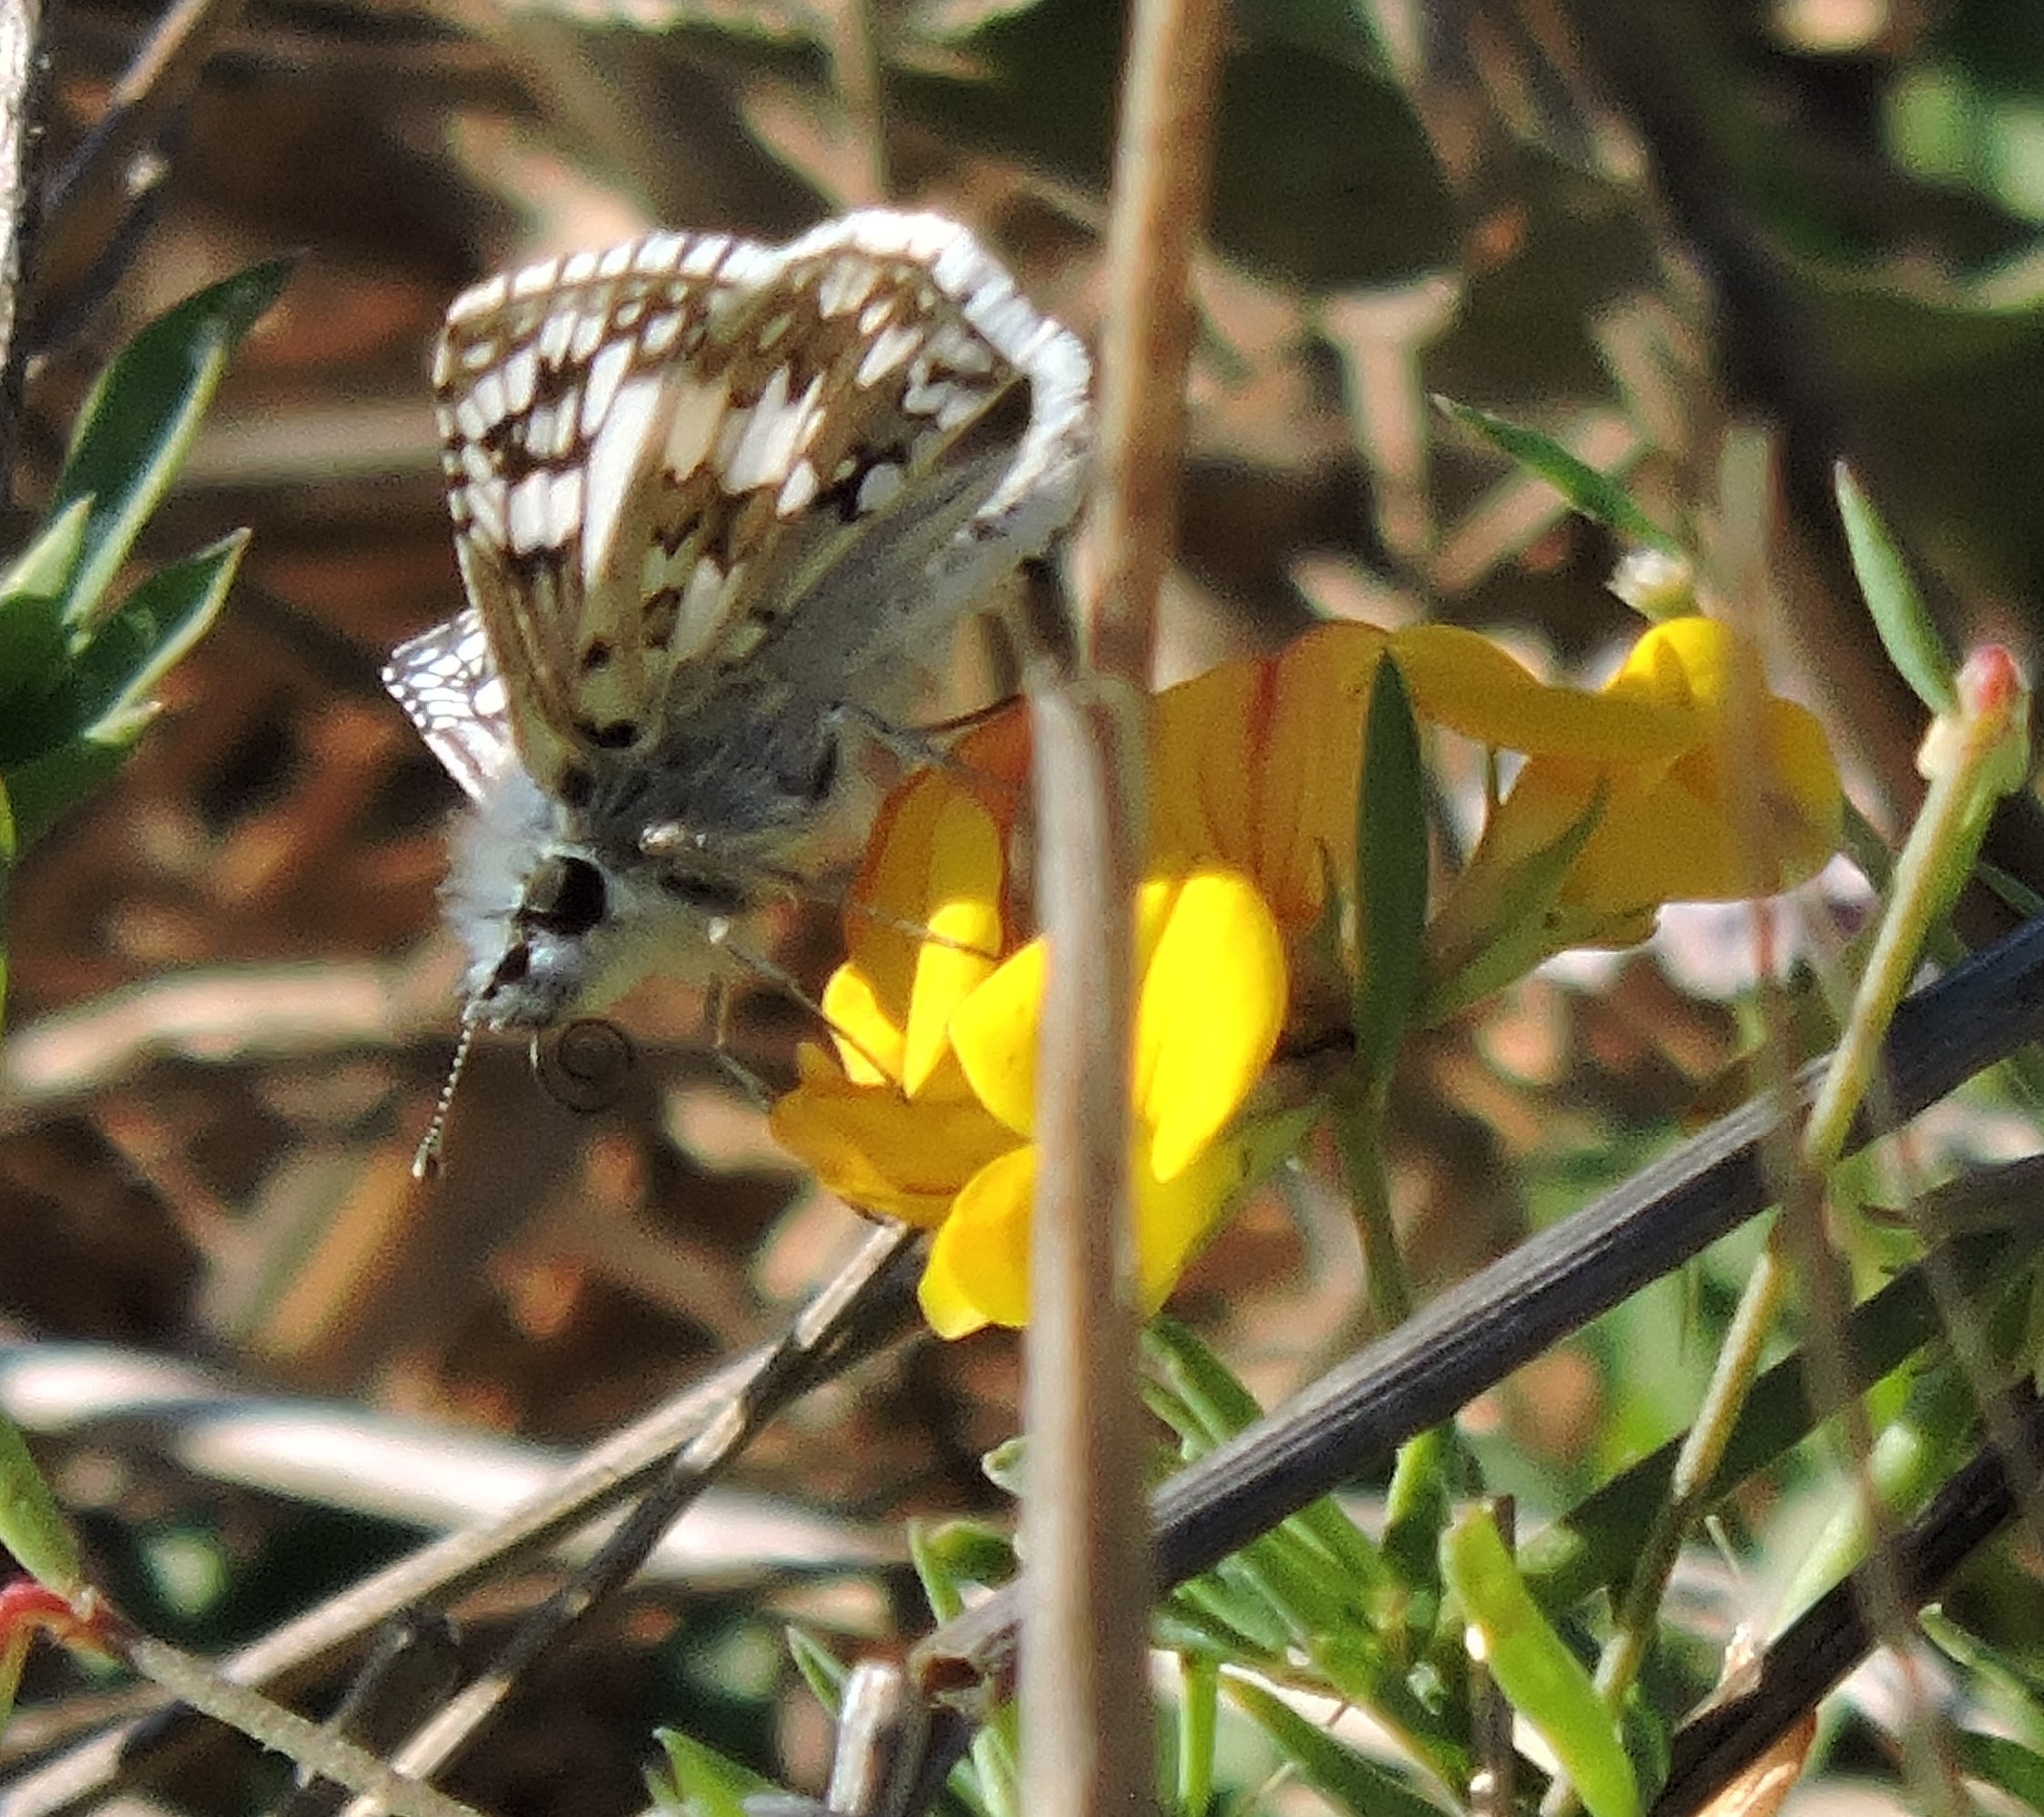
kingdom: Animalia
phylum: Arthropoda
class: Insecta
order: Lepidoptera
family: Hesperiidae
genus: Burnsius
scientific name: Burnsius communis
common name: Common checkered-skipper
